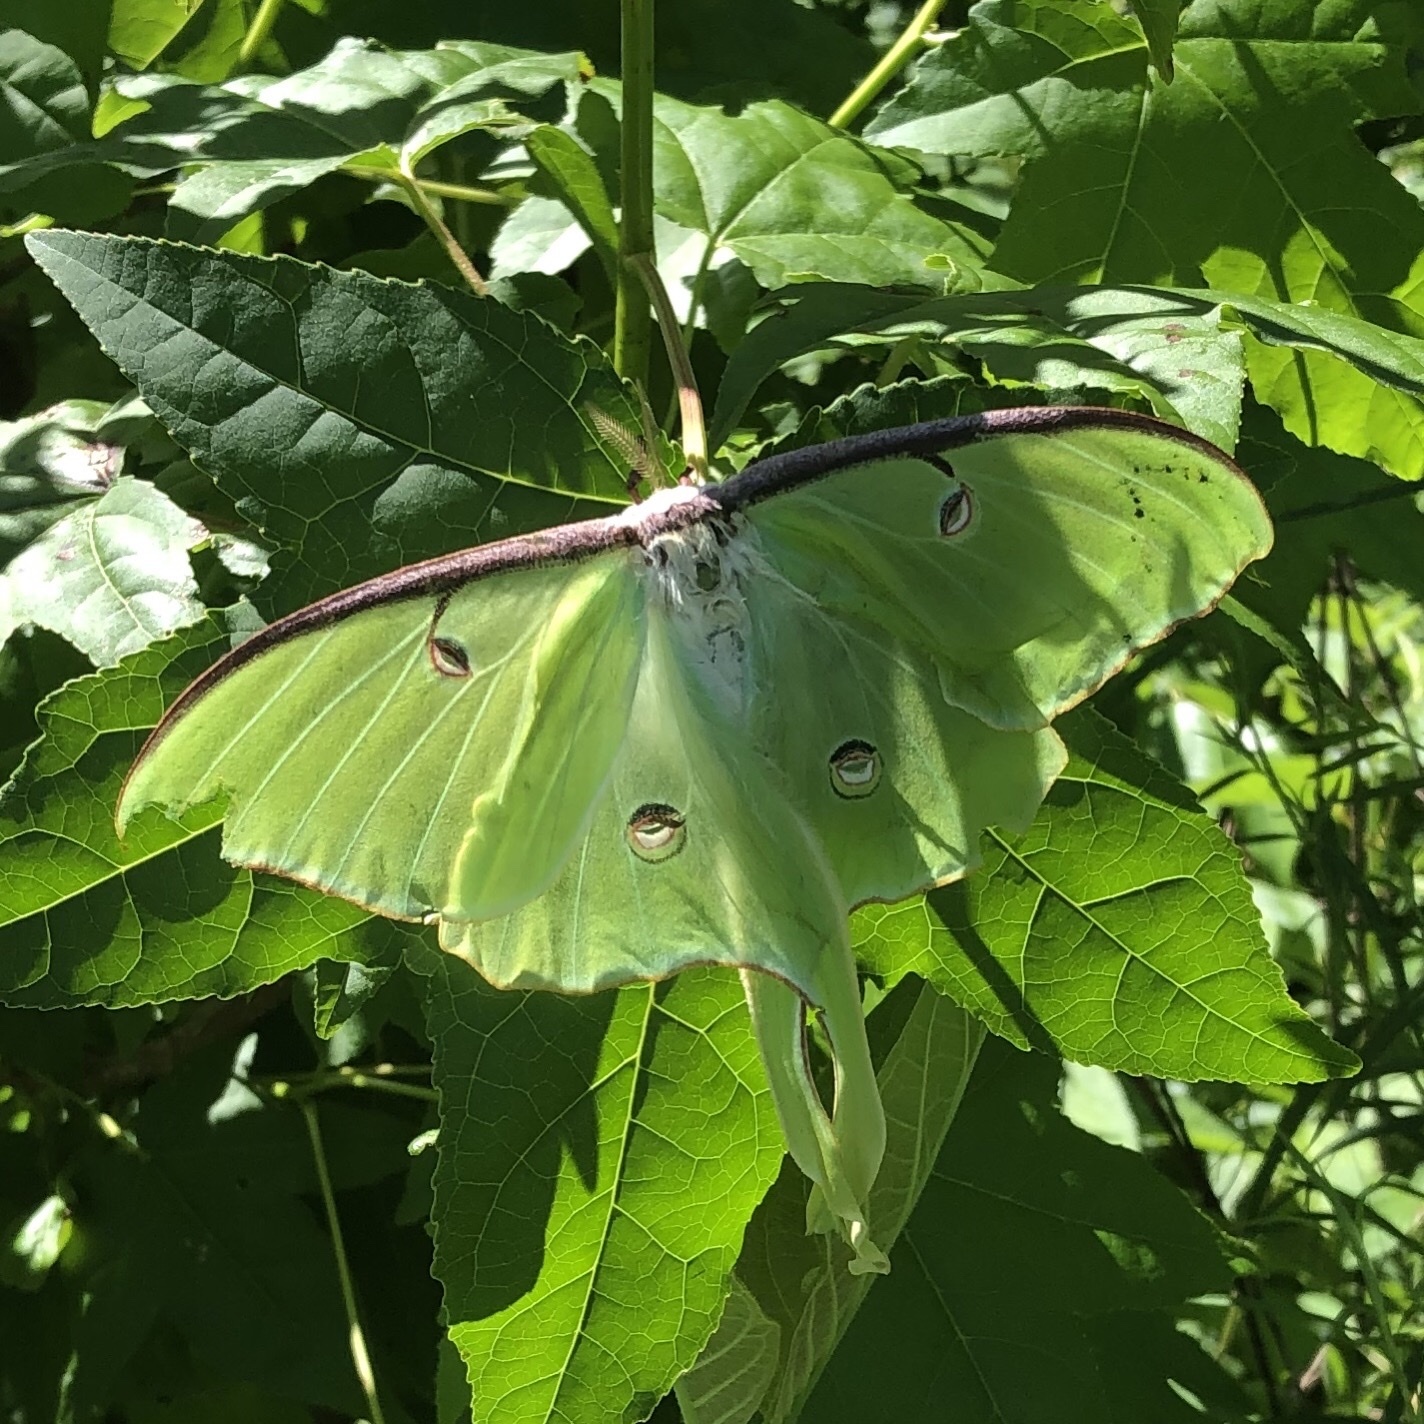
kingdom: Animalia
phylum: Arthropoda
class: Insecta
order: Lepidoptera
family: Saturniidae
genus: Actias
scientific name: Actias luna
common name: Luna moth
